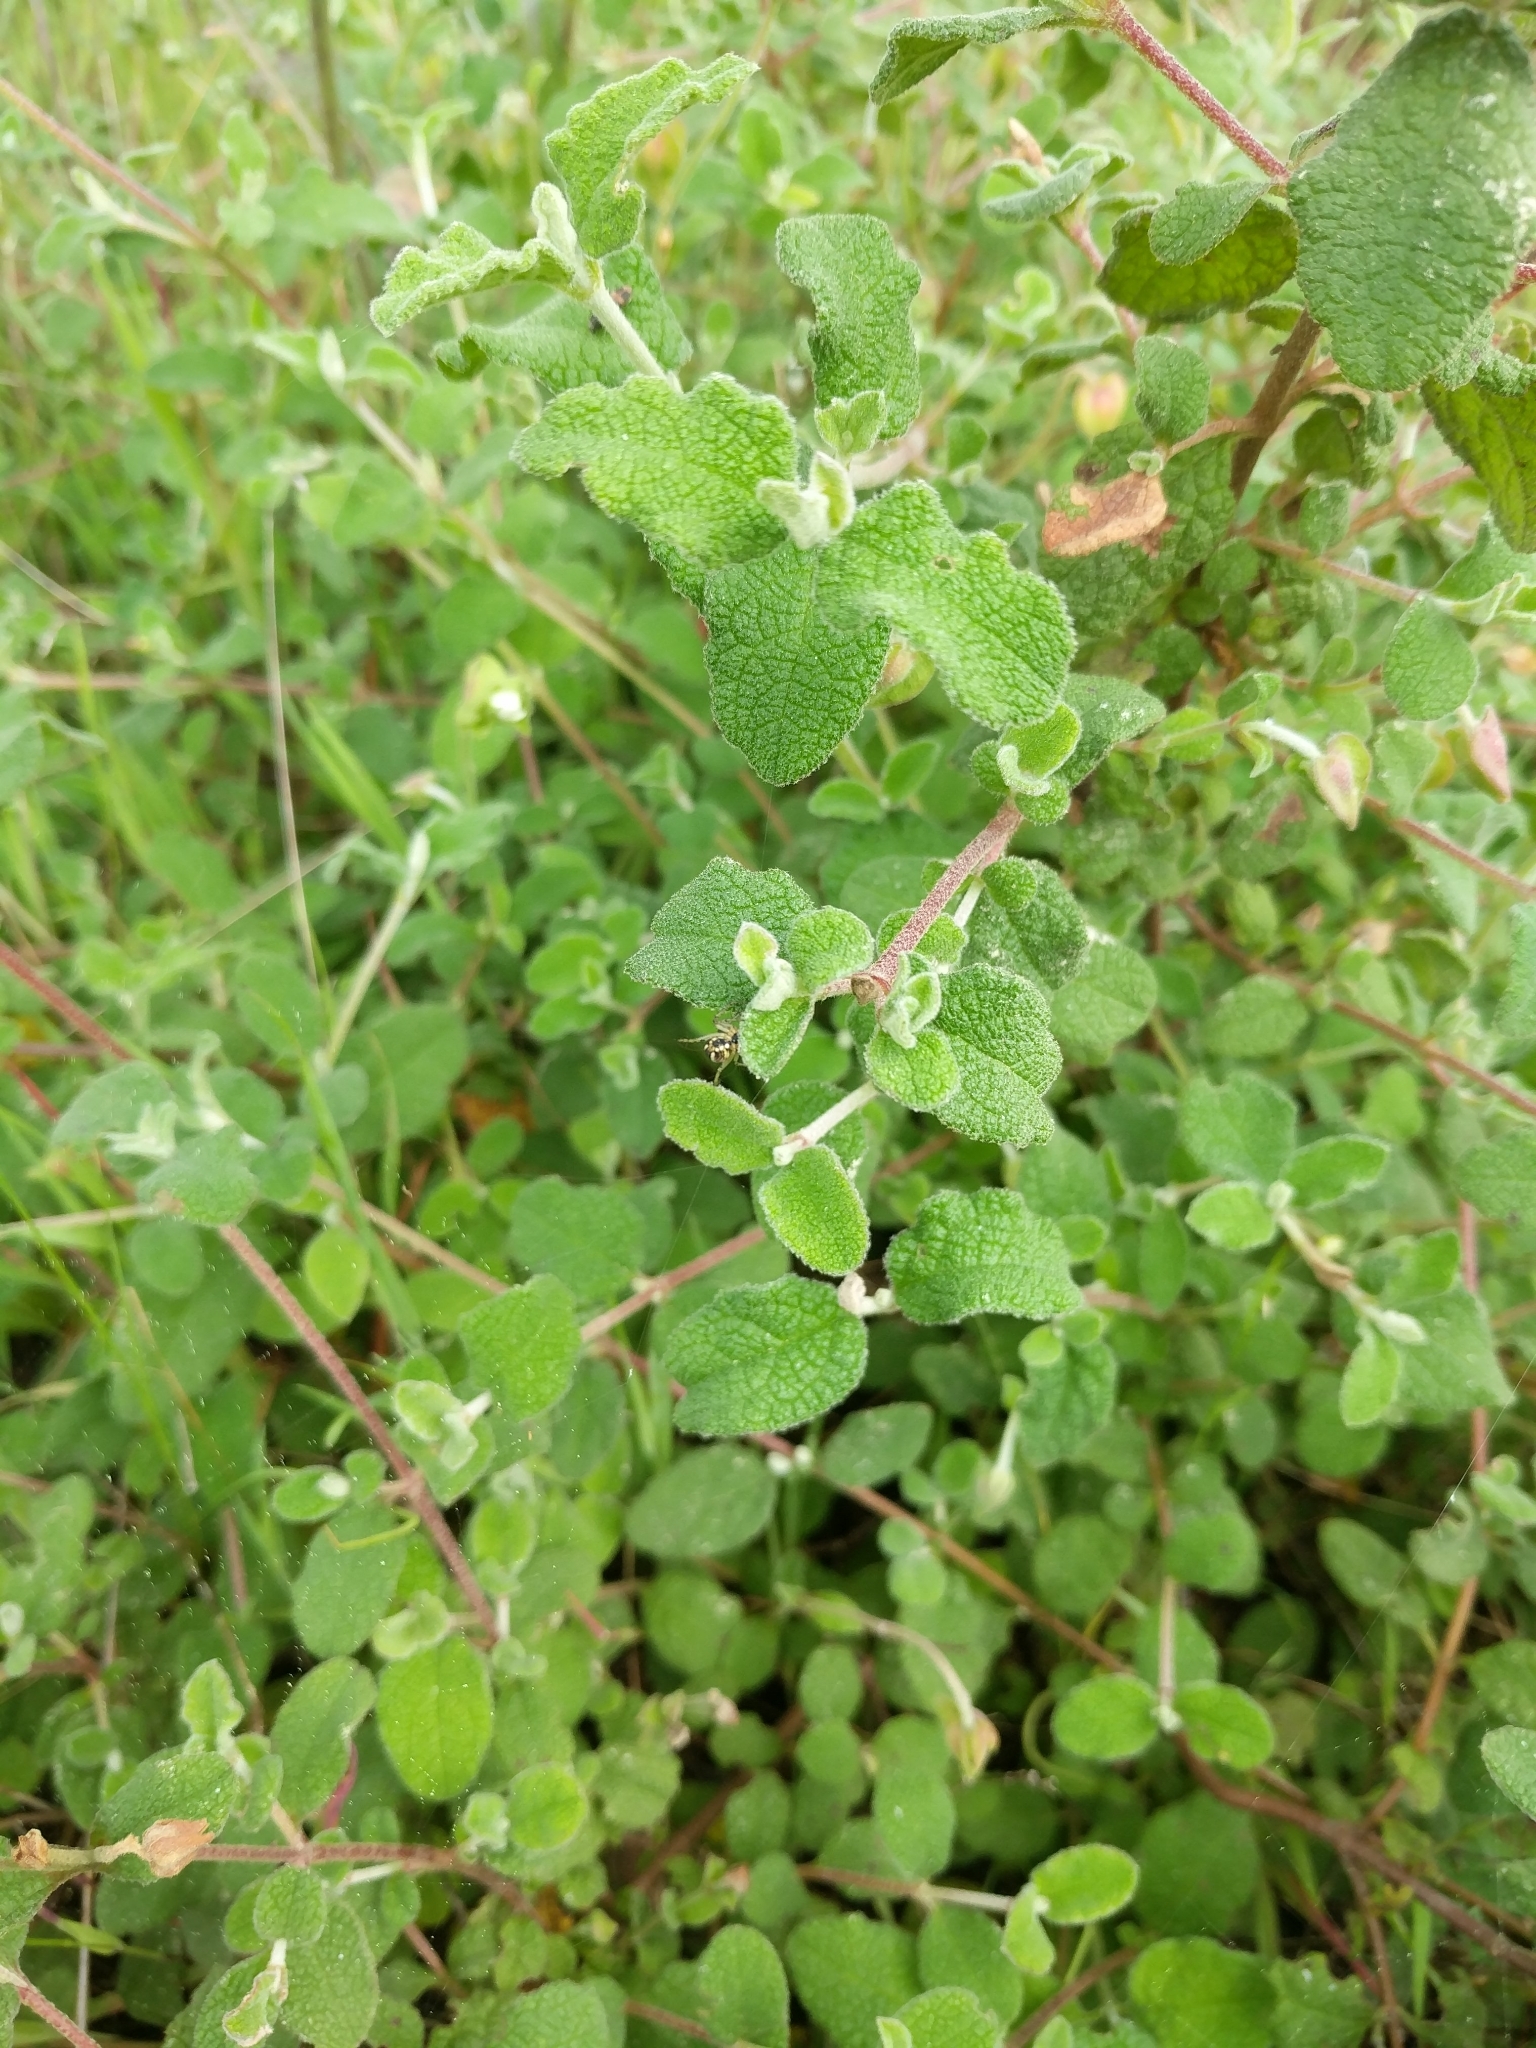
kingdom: Plantae
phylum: Tracheophyta
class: Magnoliopsida
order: Malvales
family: Cistaceae
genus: Cistus
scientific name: Cistus salviifolius
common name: Salvia cistus
